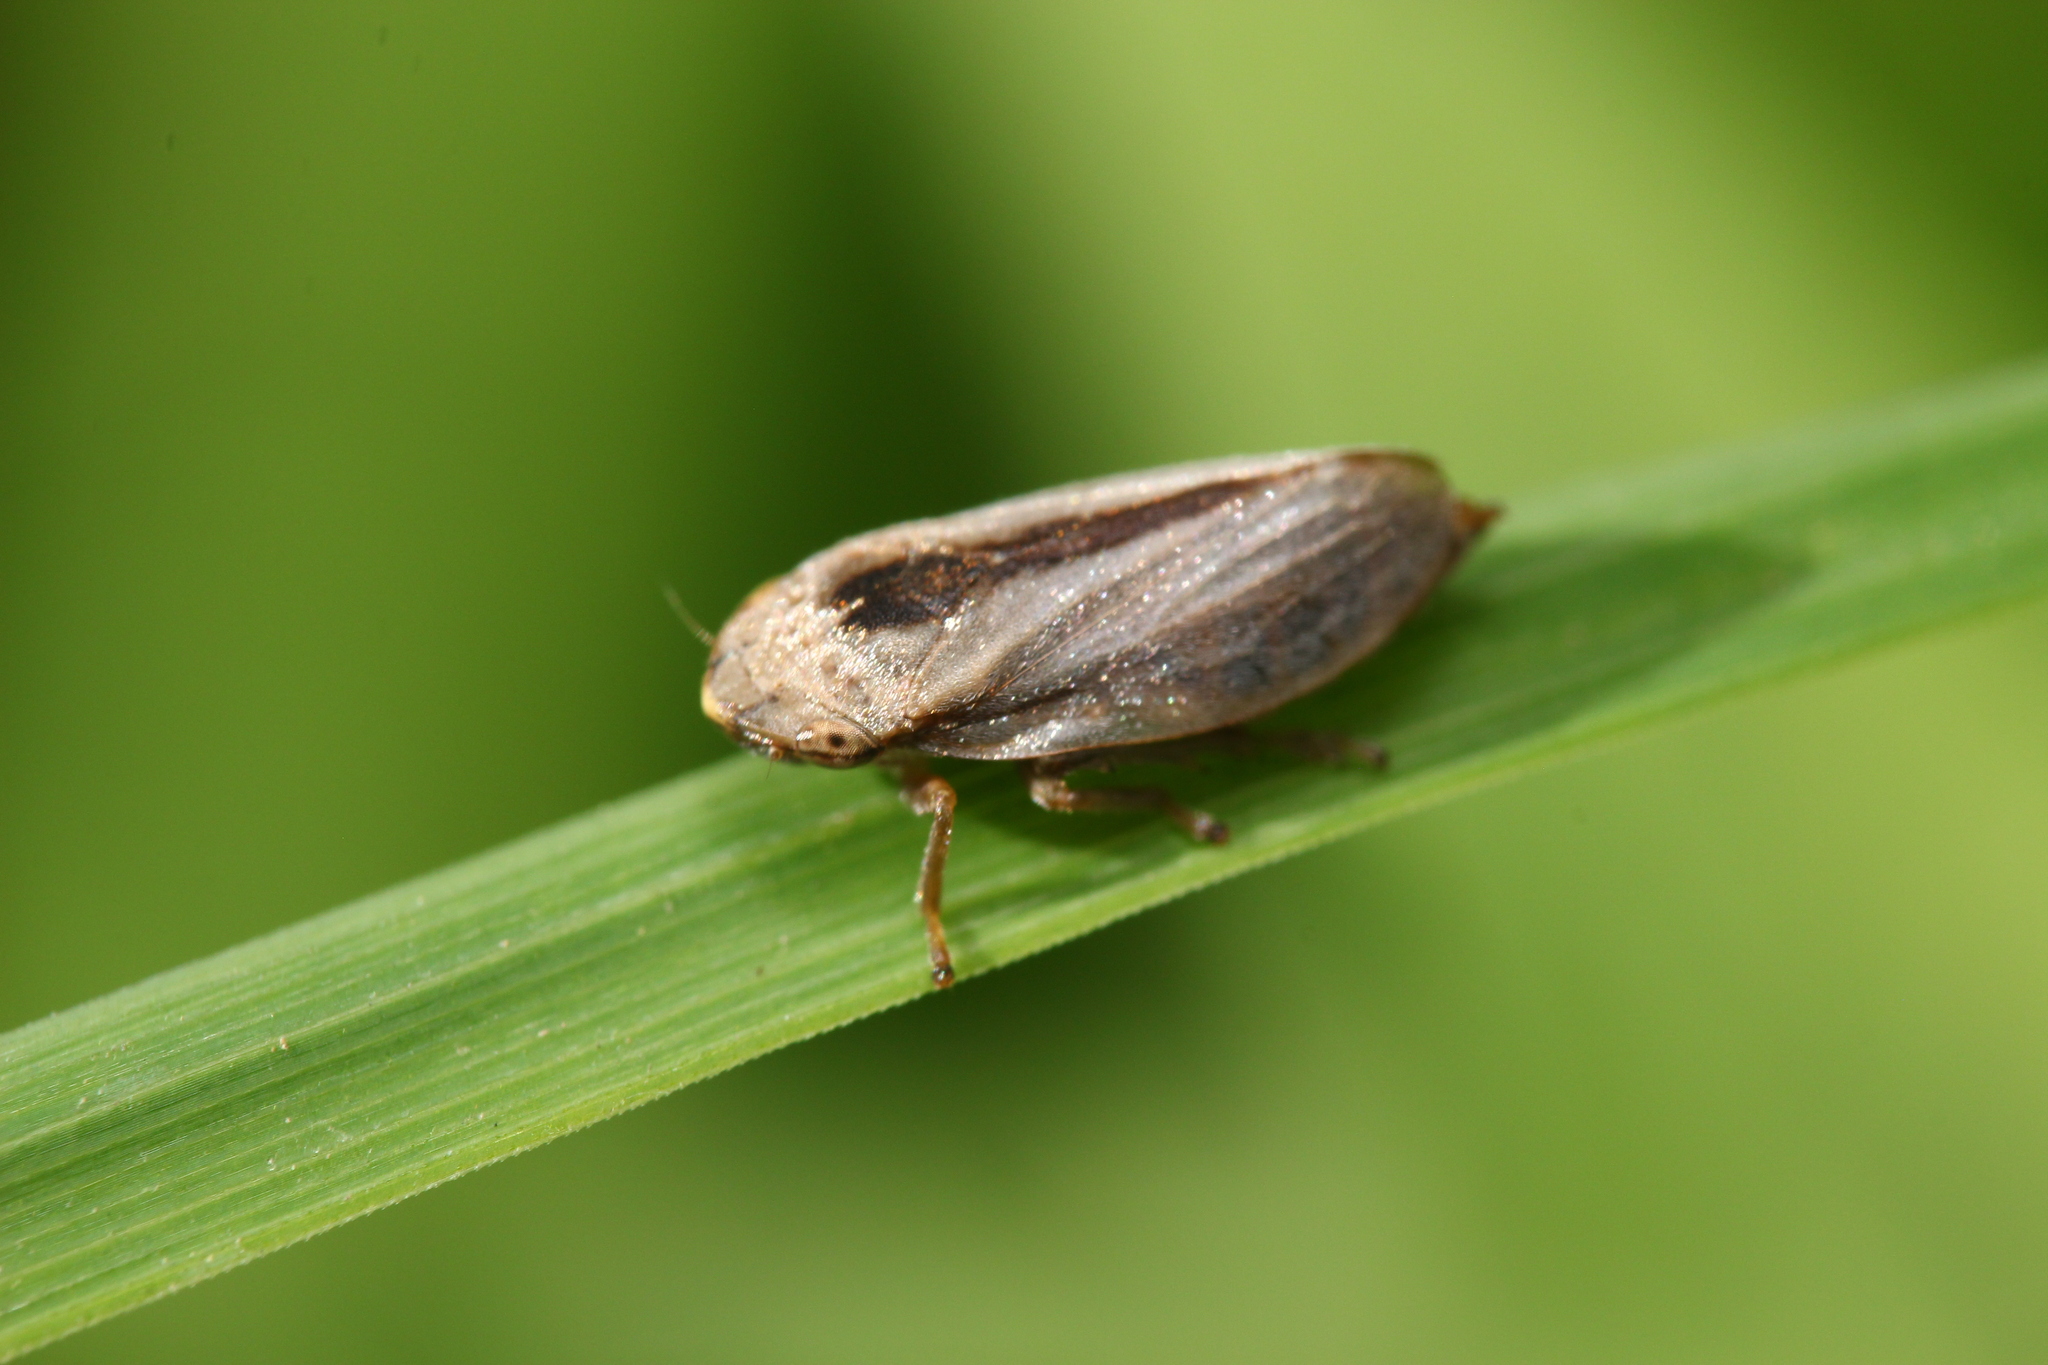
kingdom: Animalia
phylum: Arthropoda
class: Insecta
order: Hemiptera
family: Aphrophoridae
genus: Philaenus
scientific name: Philaenus spumarius
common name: Meadow spittlebug
